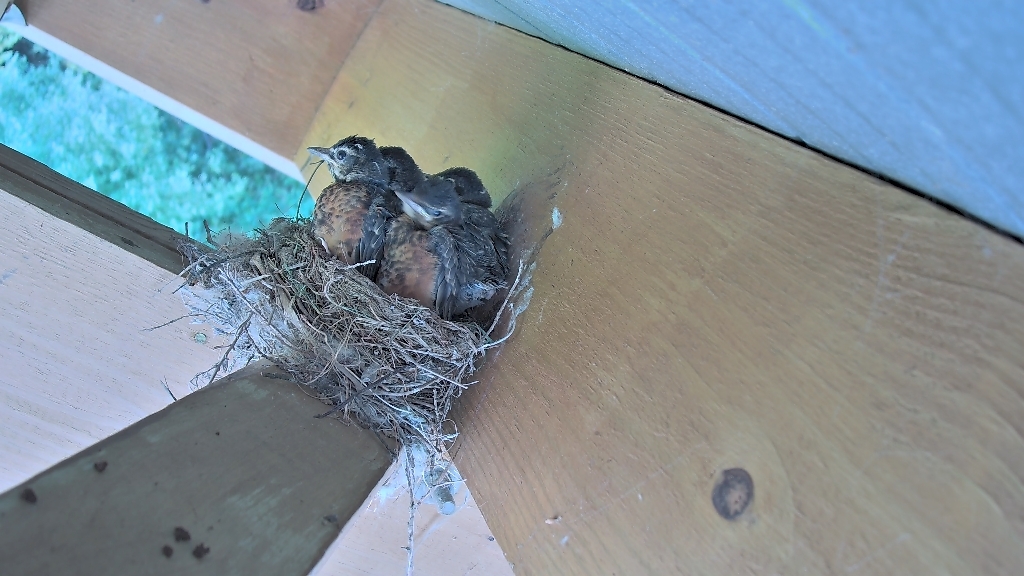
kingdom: Animalia
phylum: Chordata
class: Aves
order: Passeriformes
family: Turdidae
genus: Turdus
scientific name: Turdus migratorius
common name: American robin
